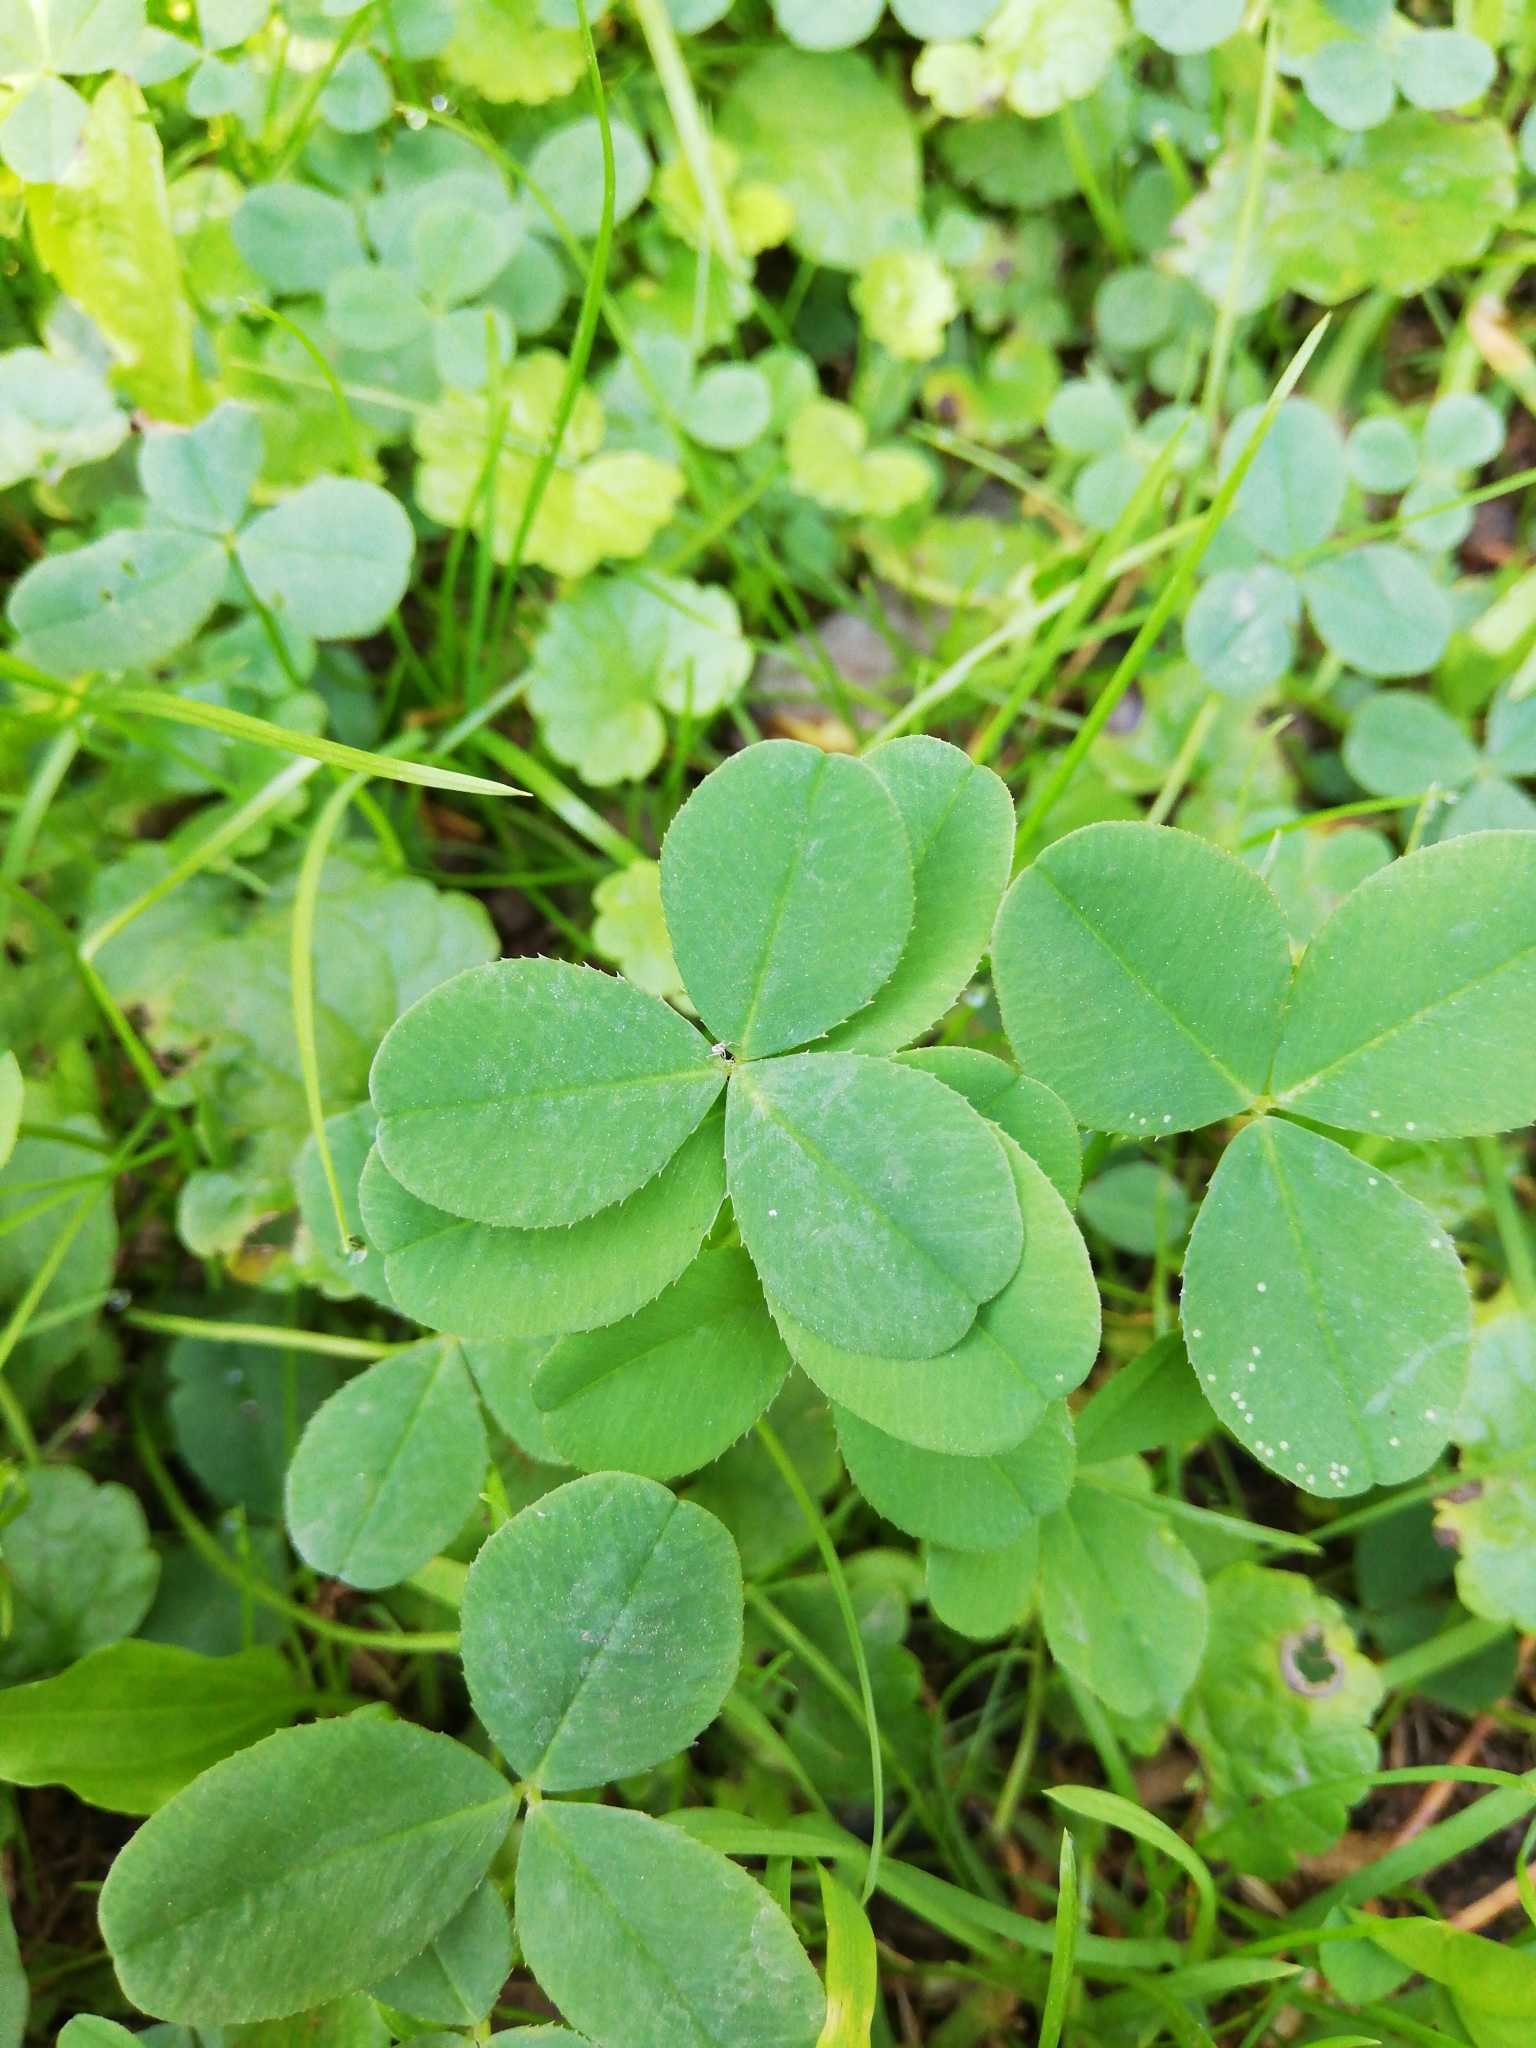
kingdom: Plantae
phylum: Tracheophyta
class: Magnoliopsida
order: Fabales
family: Fabaceae
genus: Trifolium
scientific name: Trifolium repens
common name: White clover
